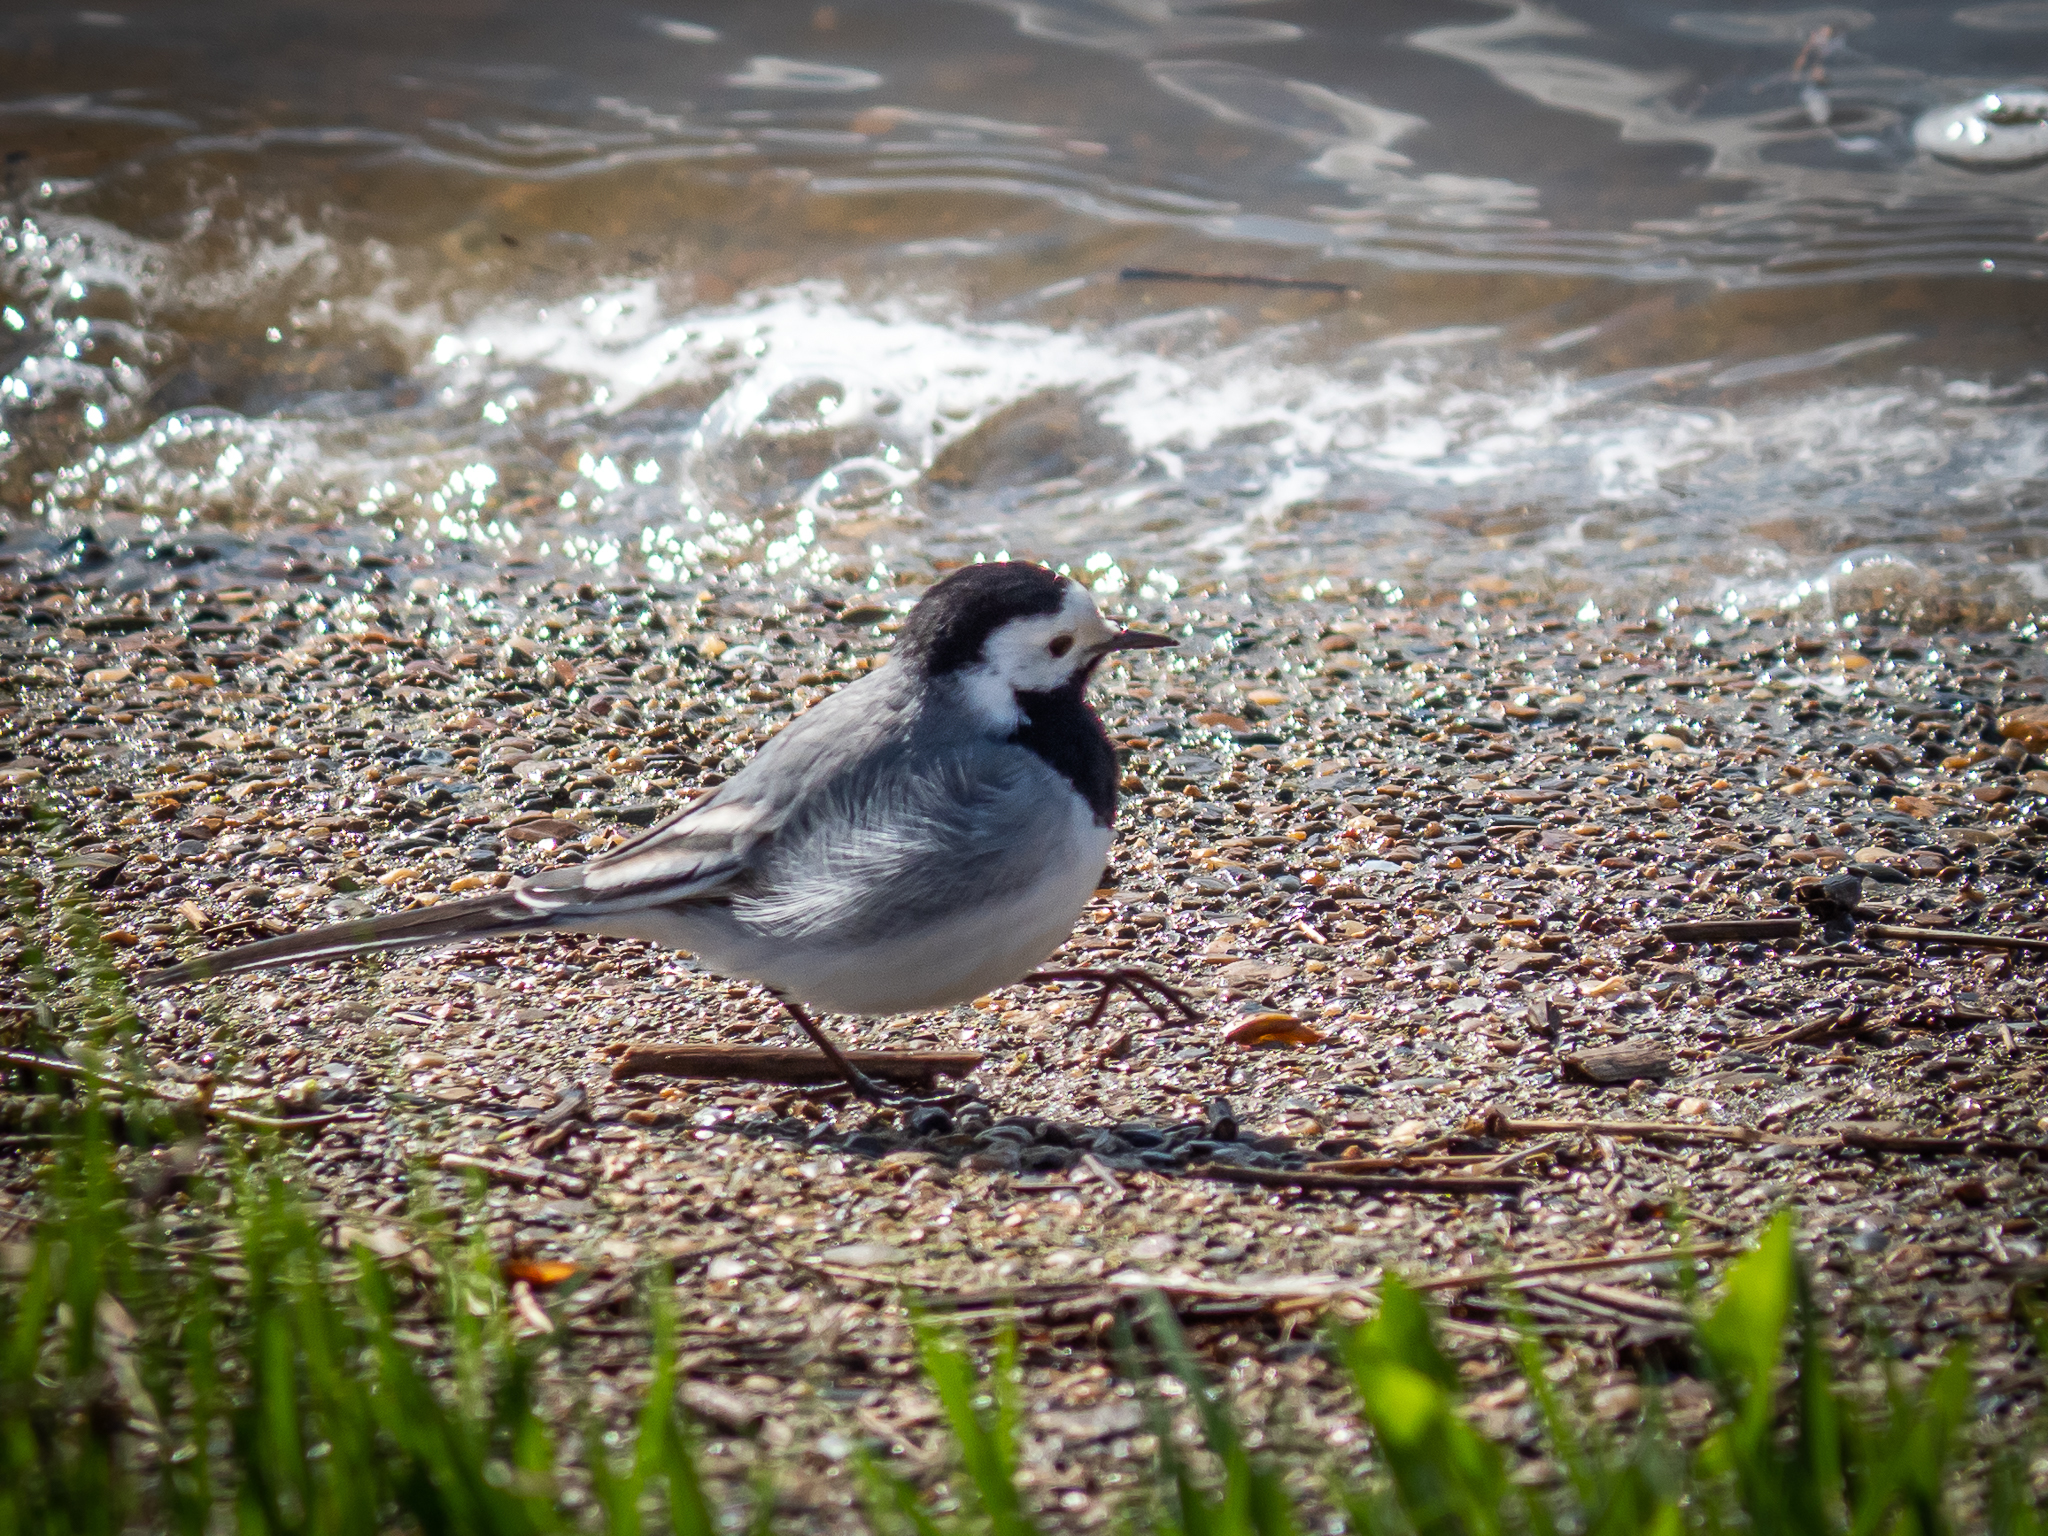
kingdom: Animalia
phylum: Chordata
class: Aves
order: Passeriformes
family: Motacillidae
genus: Motacilla
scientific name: Motacilla alba
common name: White wagtail
